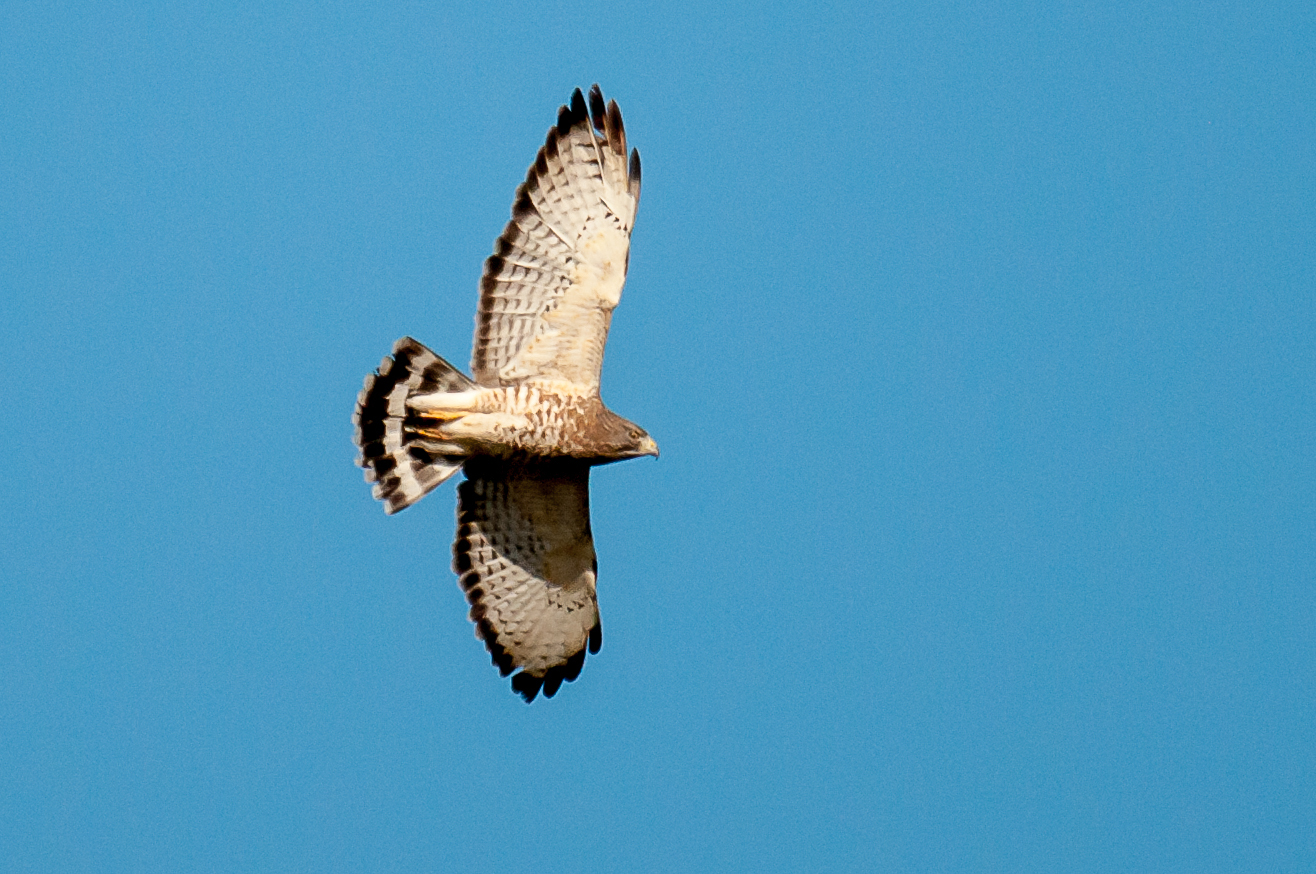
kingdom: Animalia
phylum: Chordata
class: Aves
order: Accipitriformes
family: Accipitridae
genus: Buteo
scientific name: Buteo platypterus
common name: Broad-winged hawk
